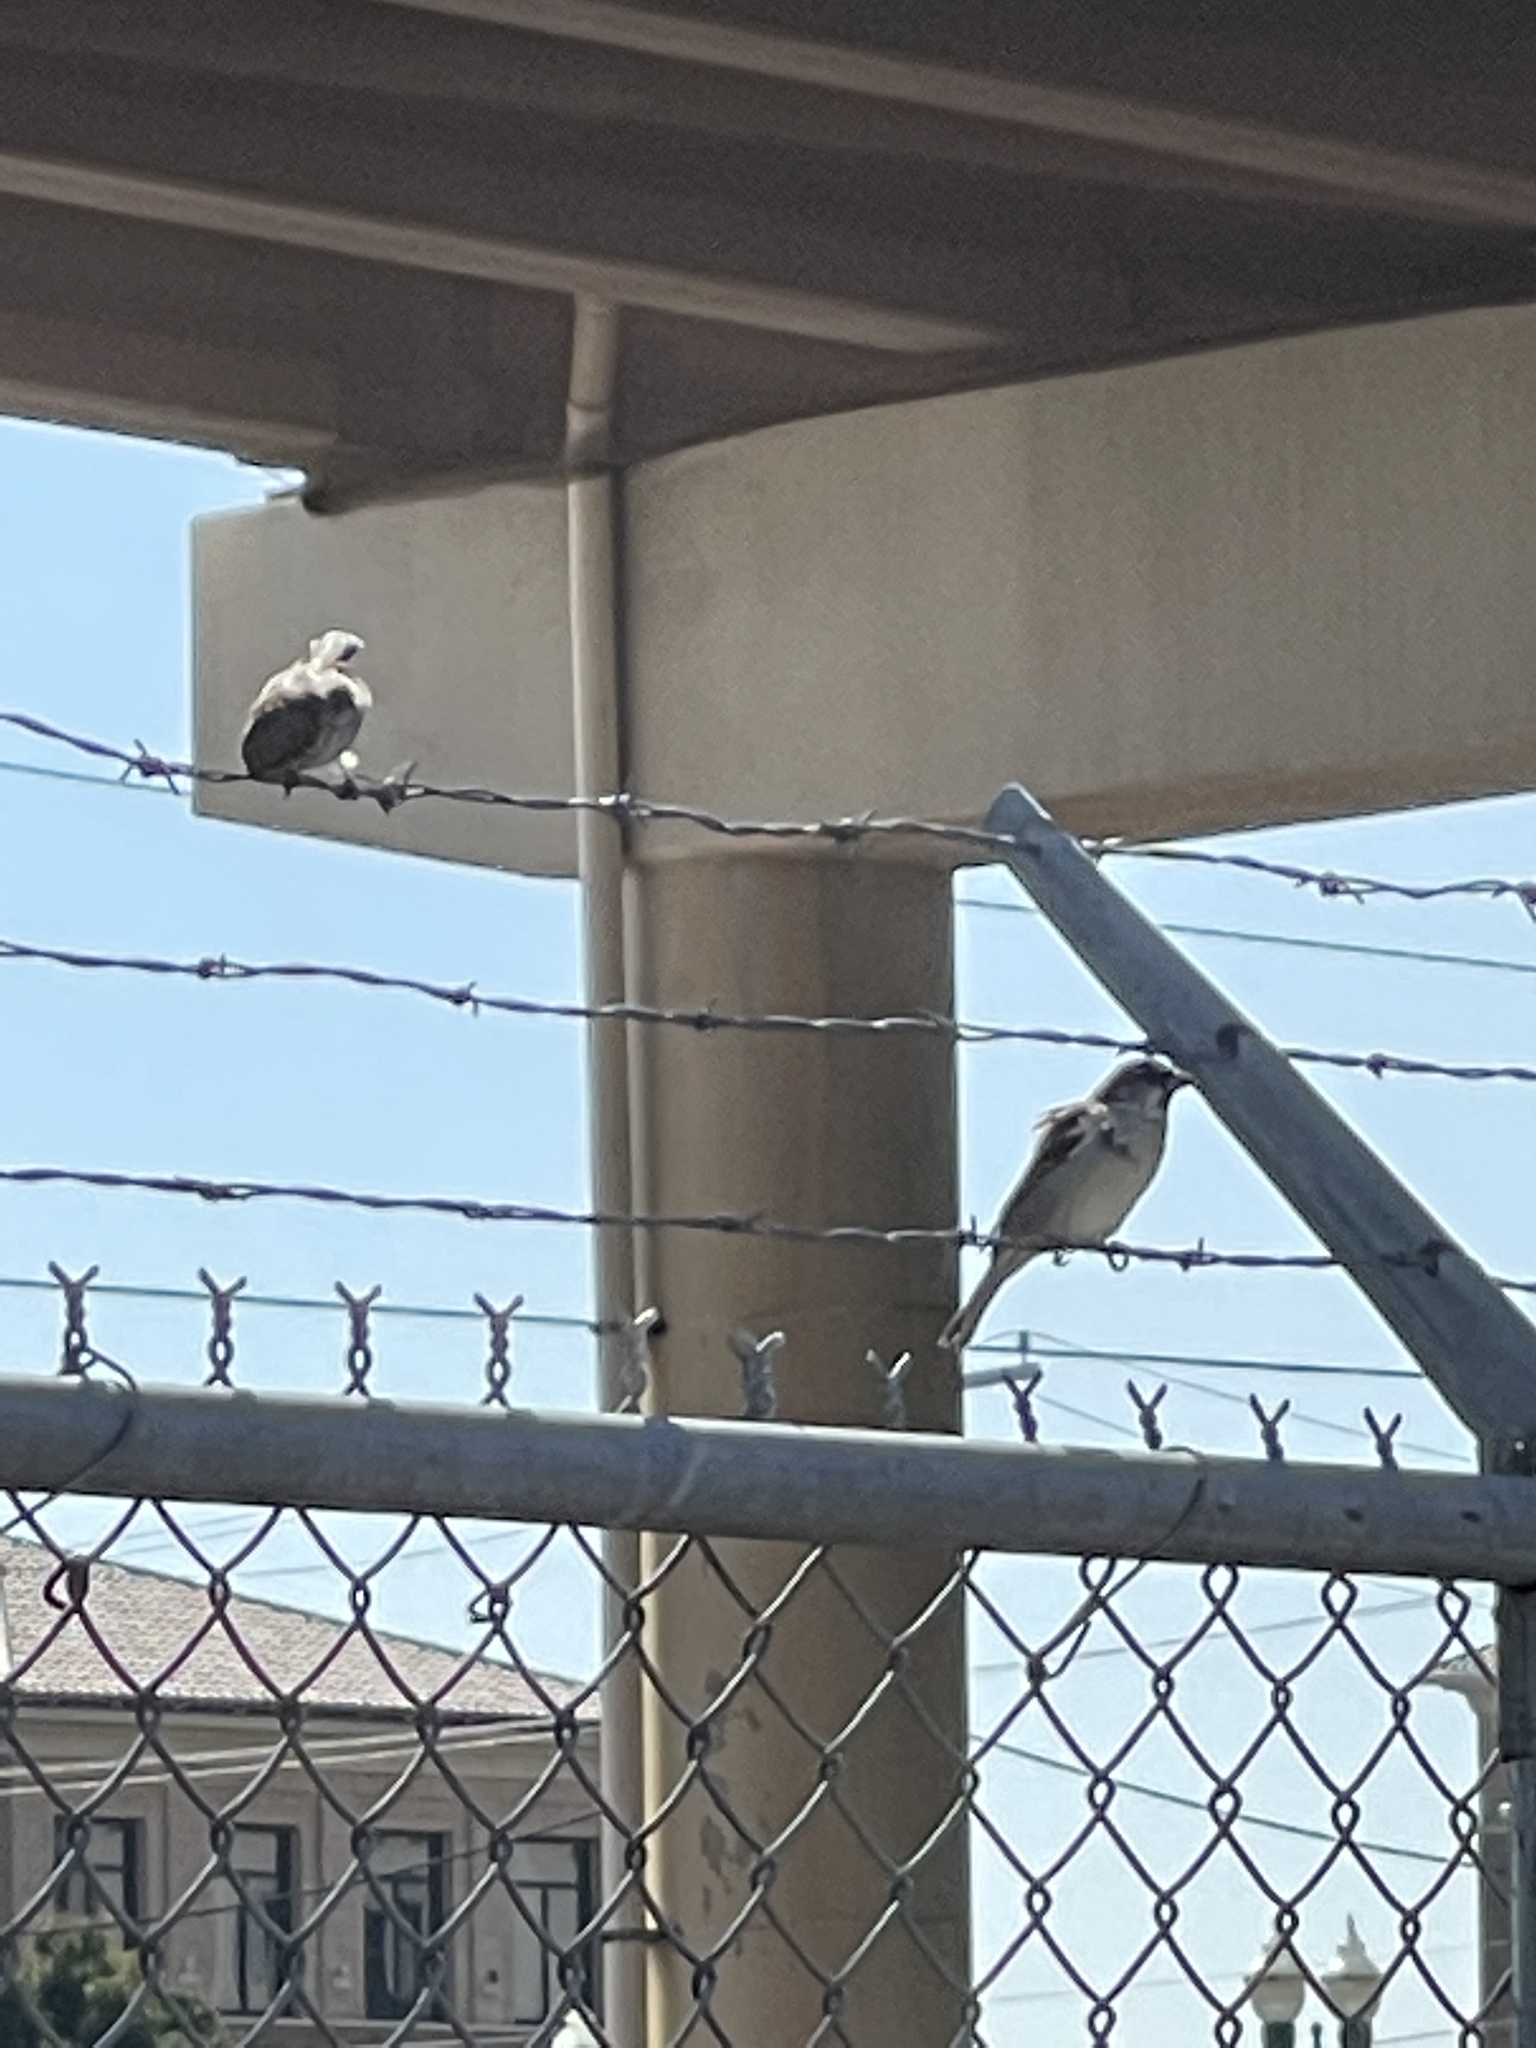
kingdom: Animalia
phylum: Chordata
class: Aves
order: Passeriformes
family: Passeridae
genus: Passer
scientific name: Passer domesticus
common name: House sparrow
